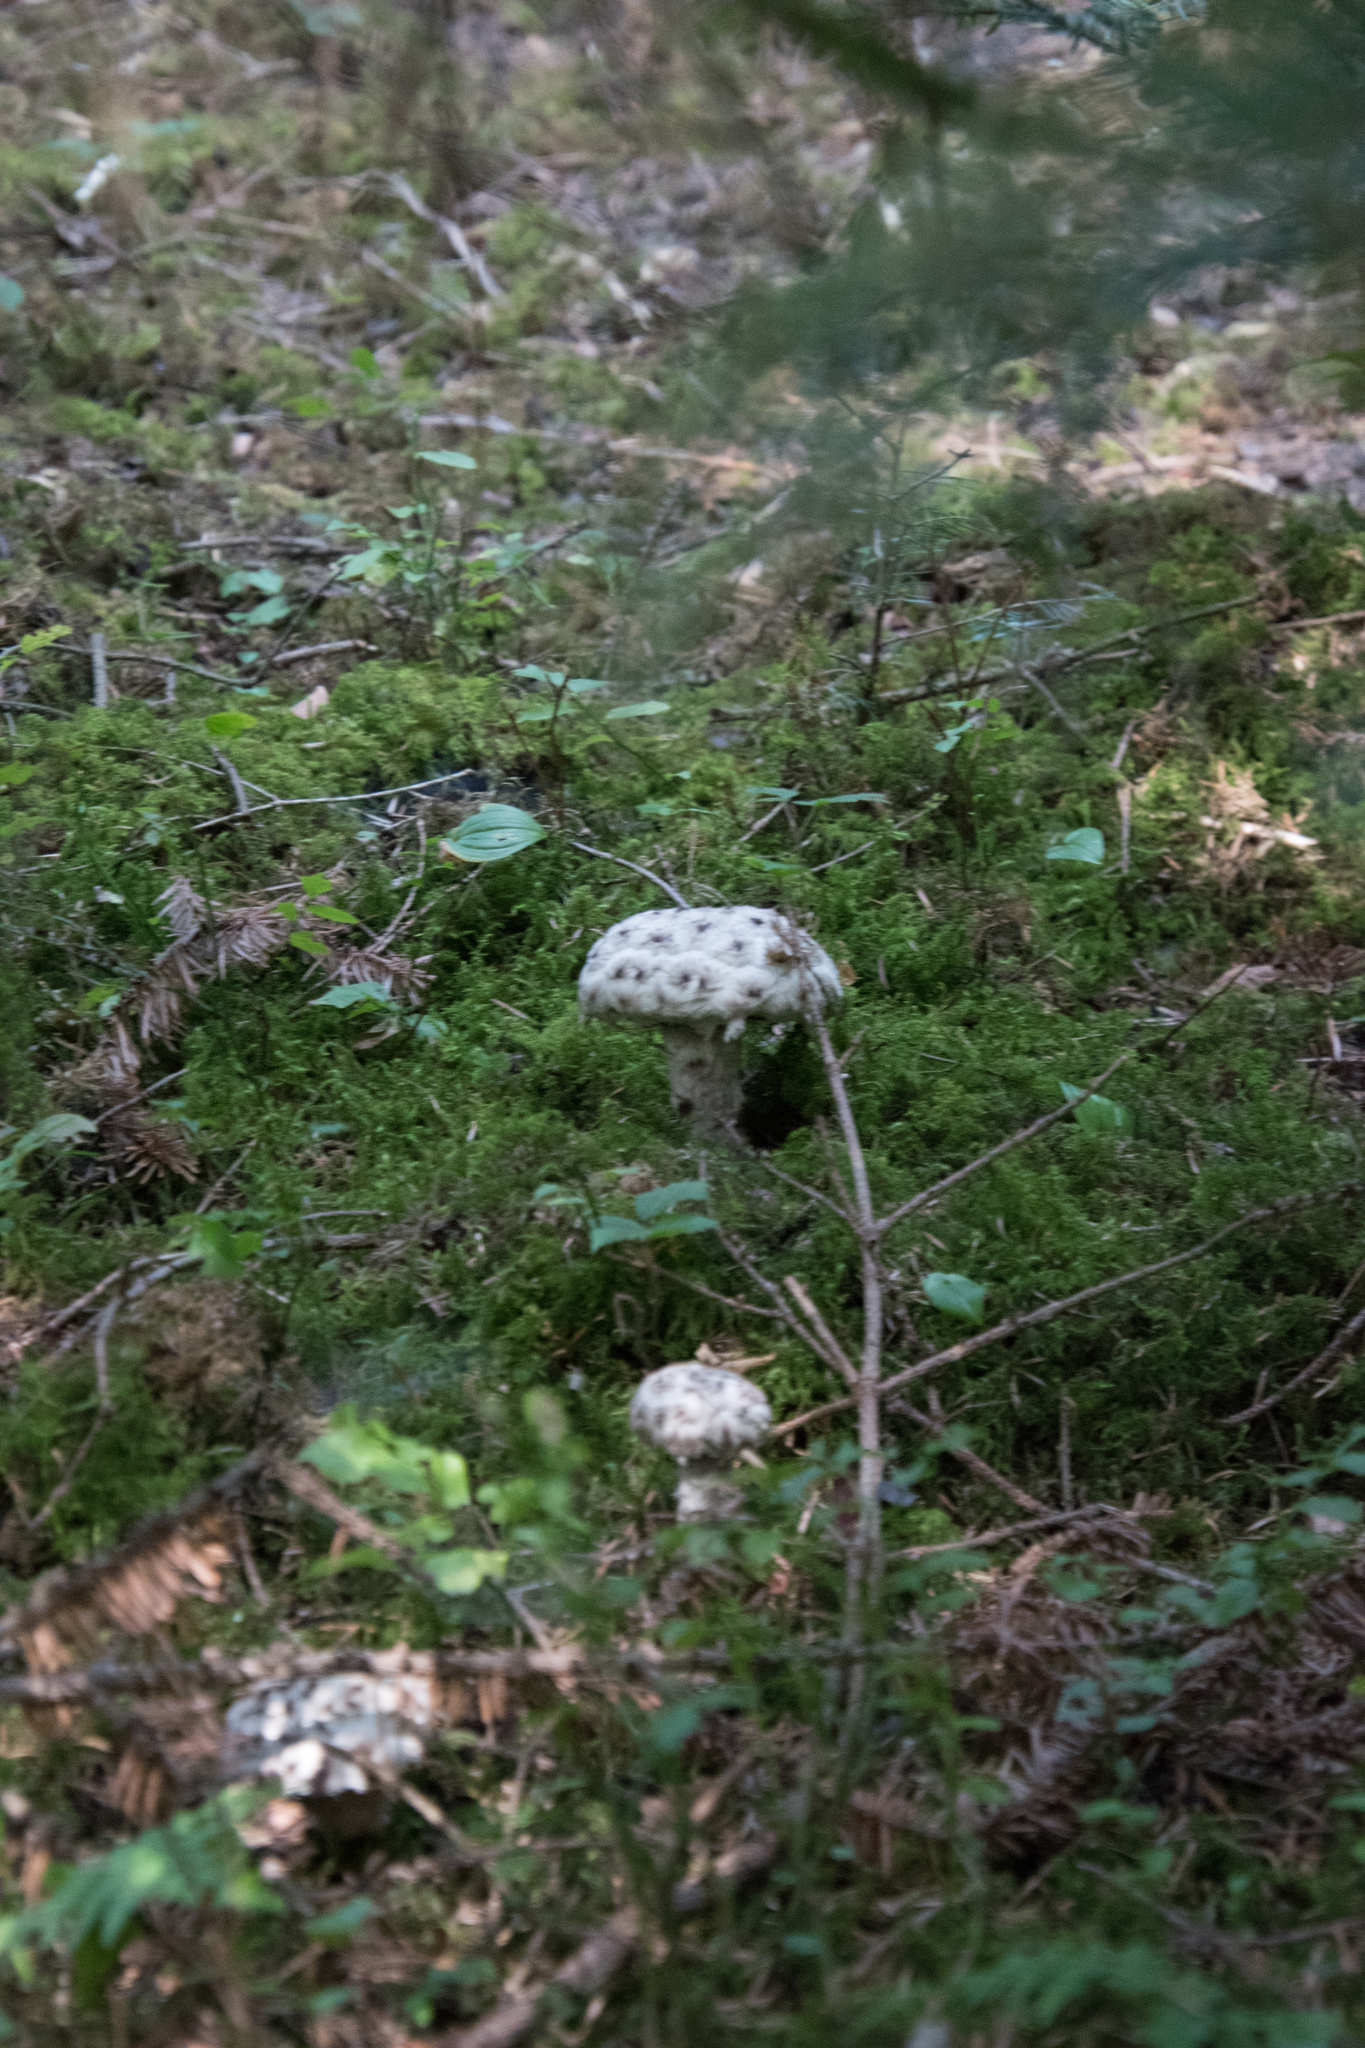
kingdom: Fungi
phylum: Basidiomycota
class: Agaricomycetes
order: Boletales
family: Boletaceae
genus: Strobilomyces
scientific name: Strobilomyces strobilaceus
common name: Old man of the woods
